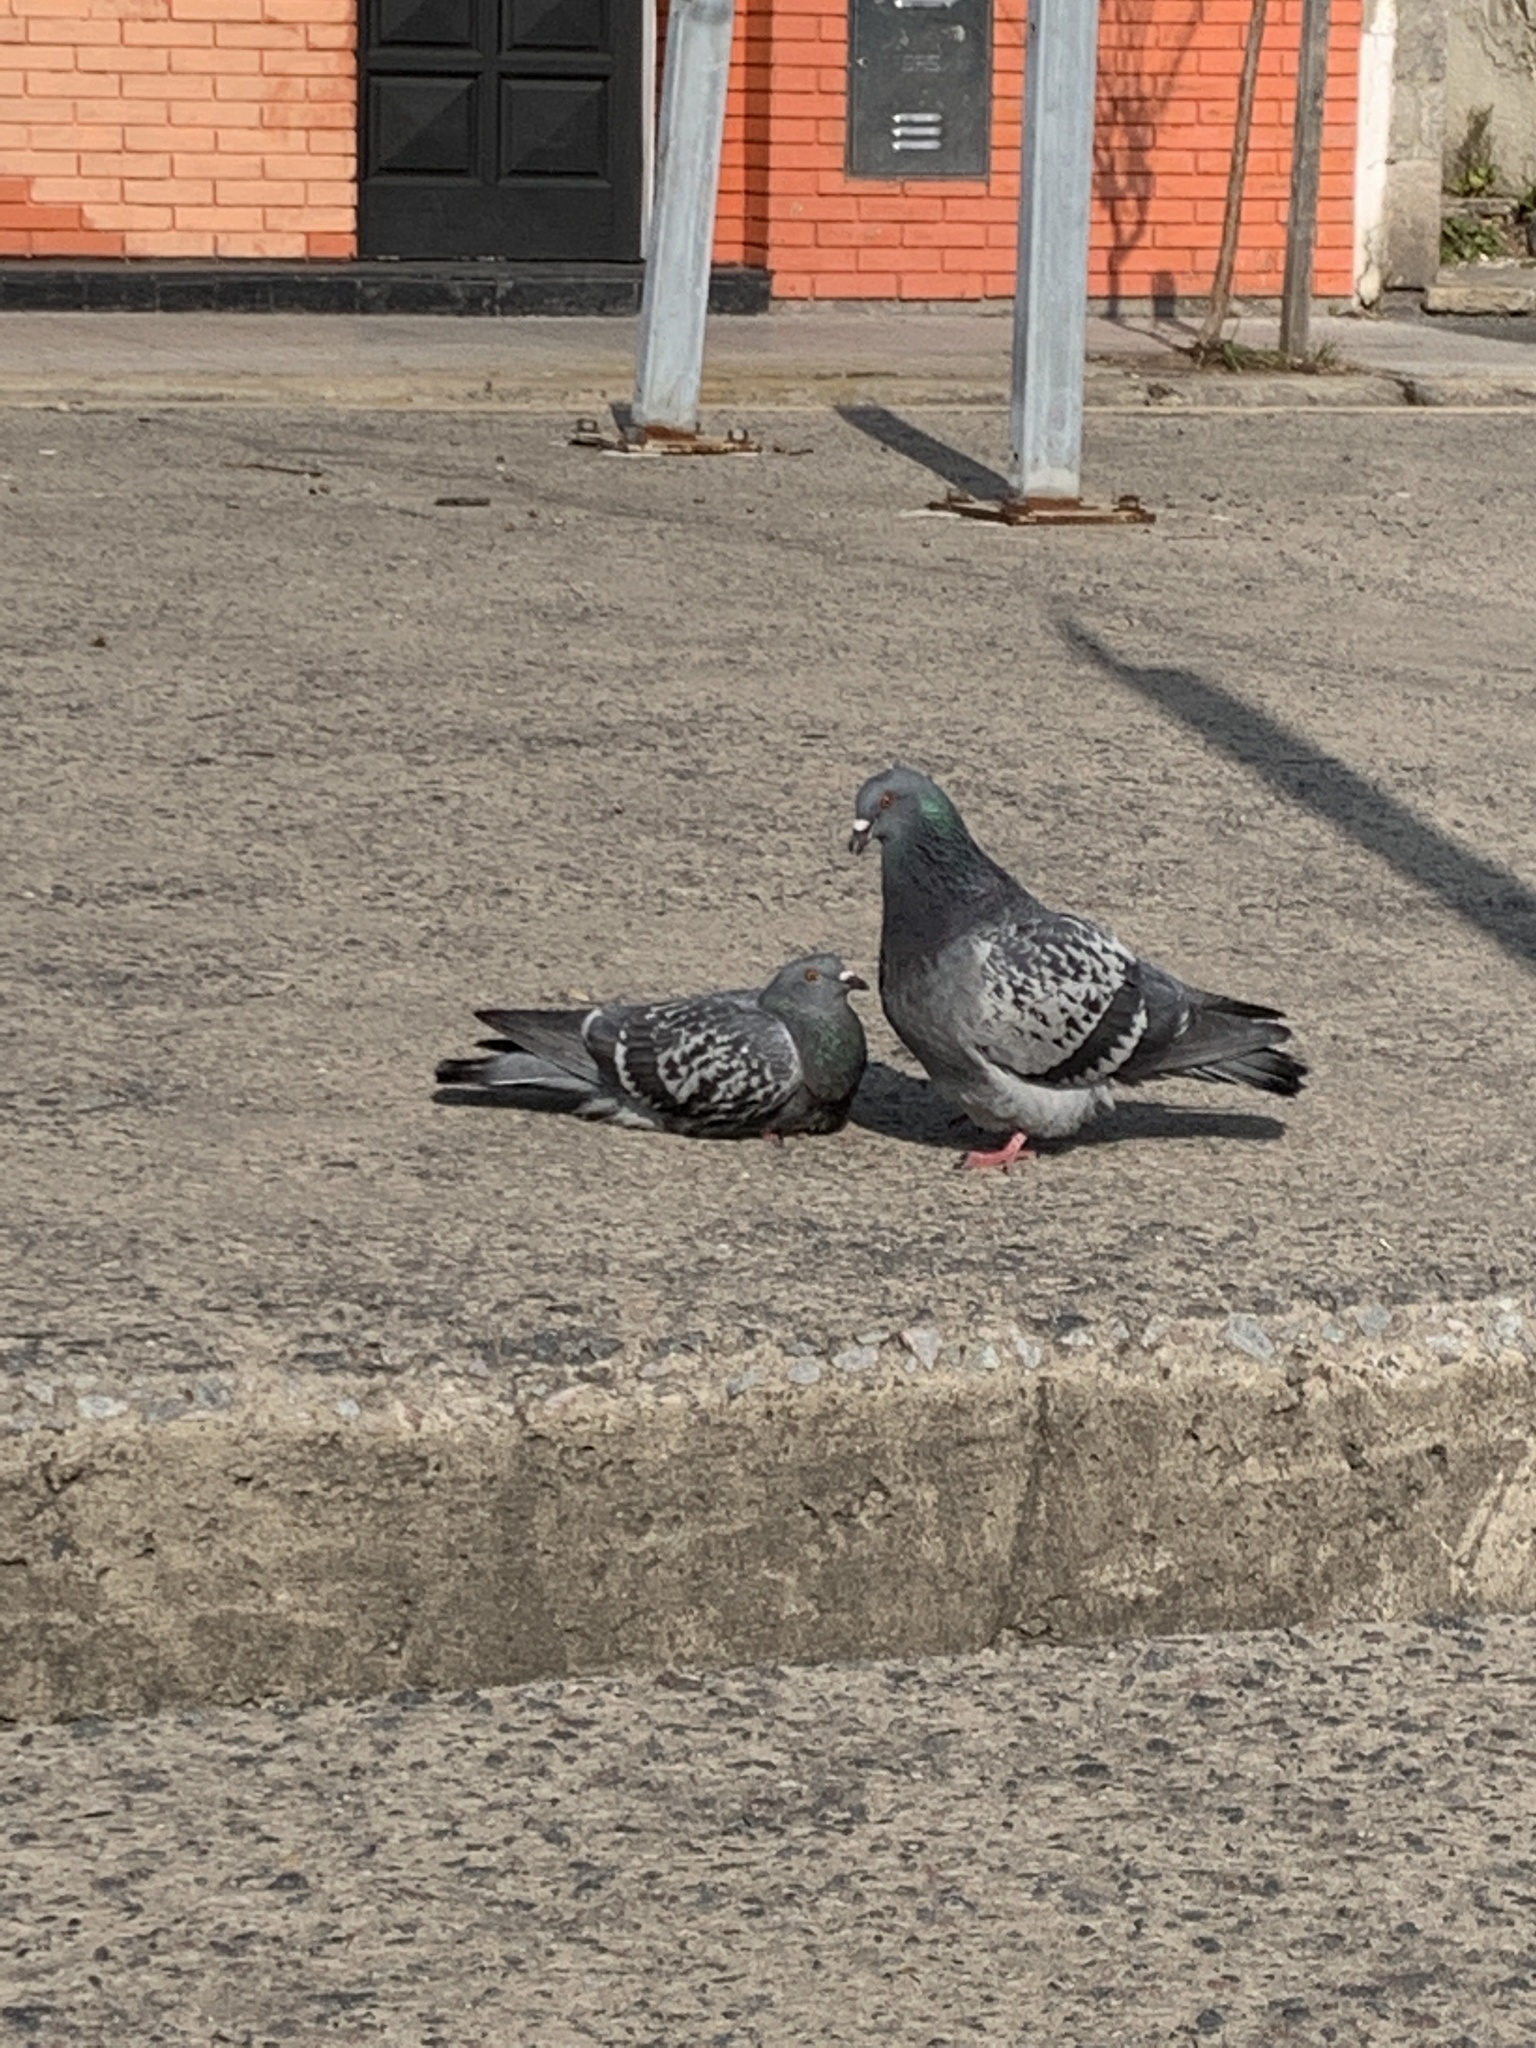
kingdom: Animalia
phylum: Chordata
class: Aves
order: Columbiformes
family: Columbidae
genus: Columba
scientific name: Columba livia
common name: Rock pigeon
